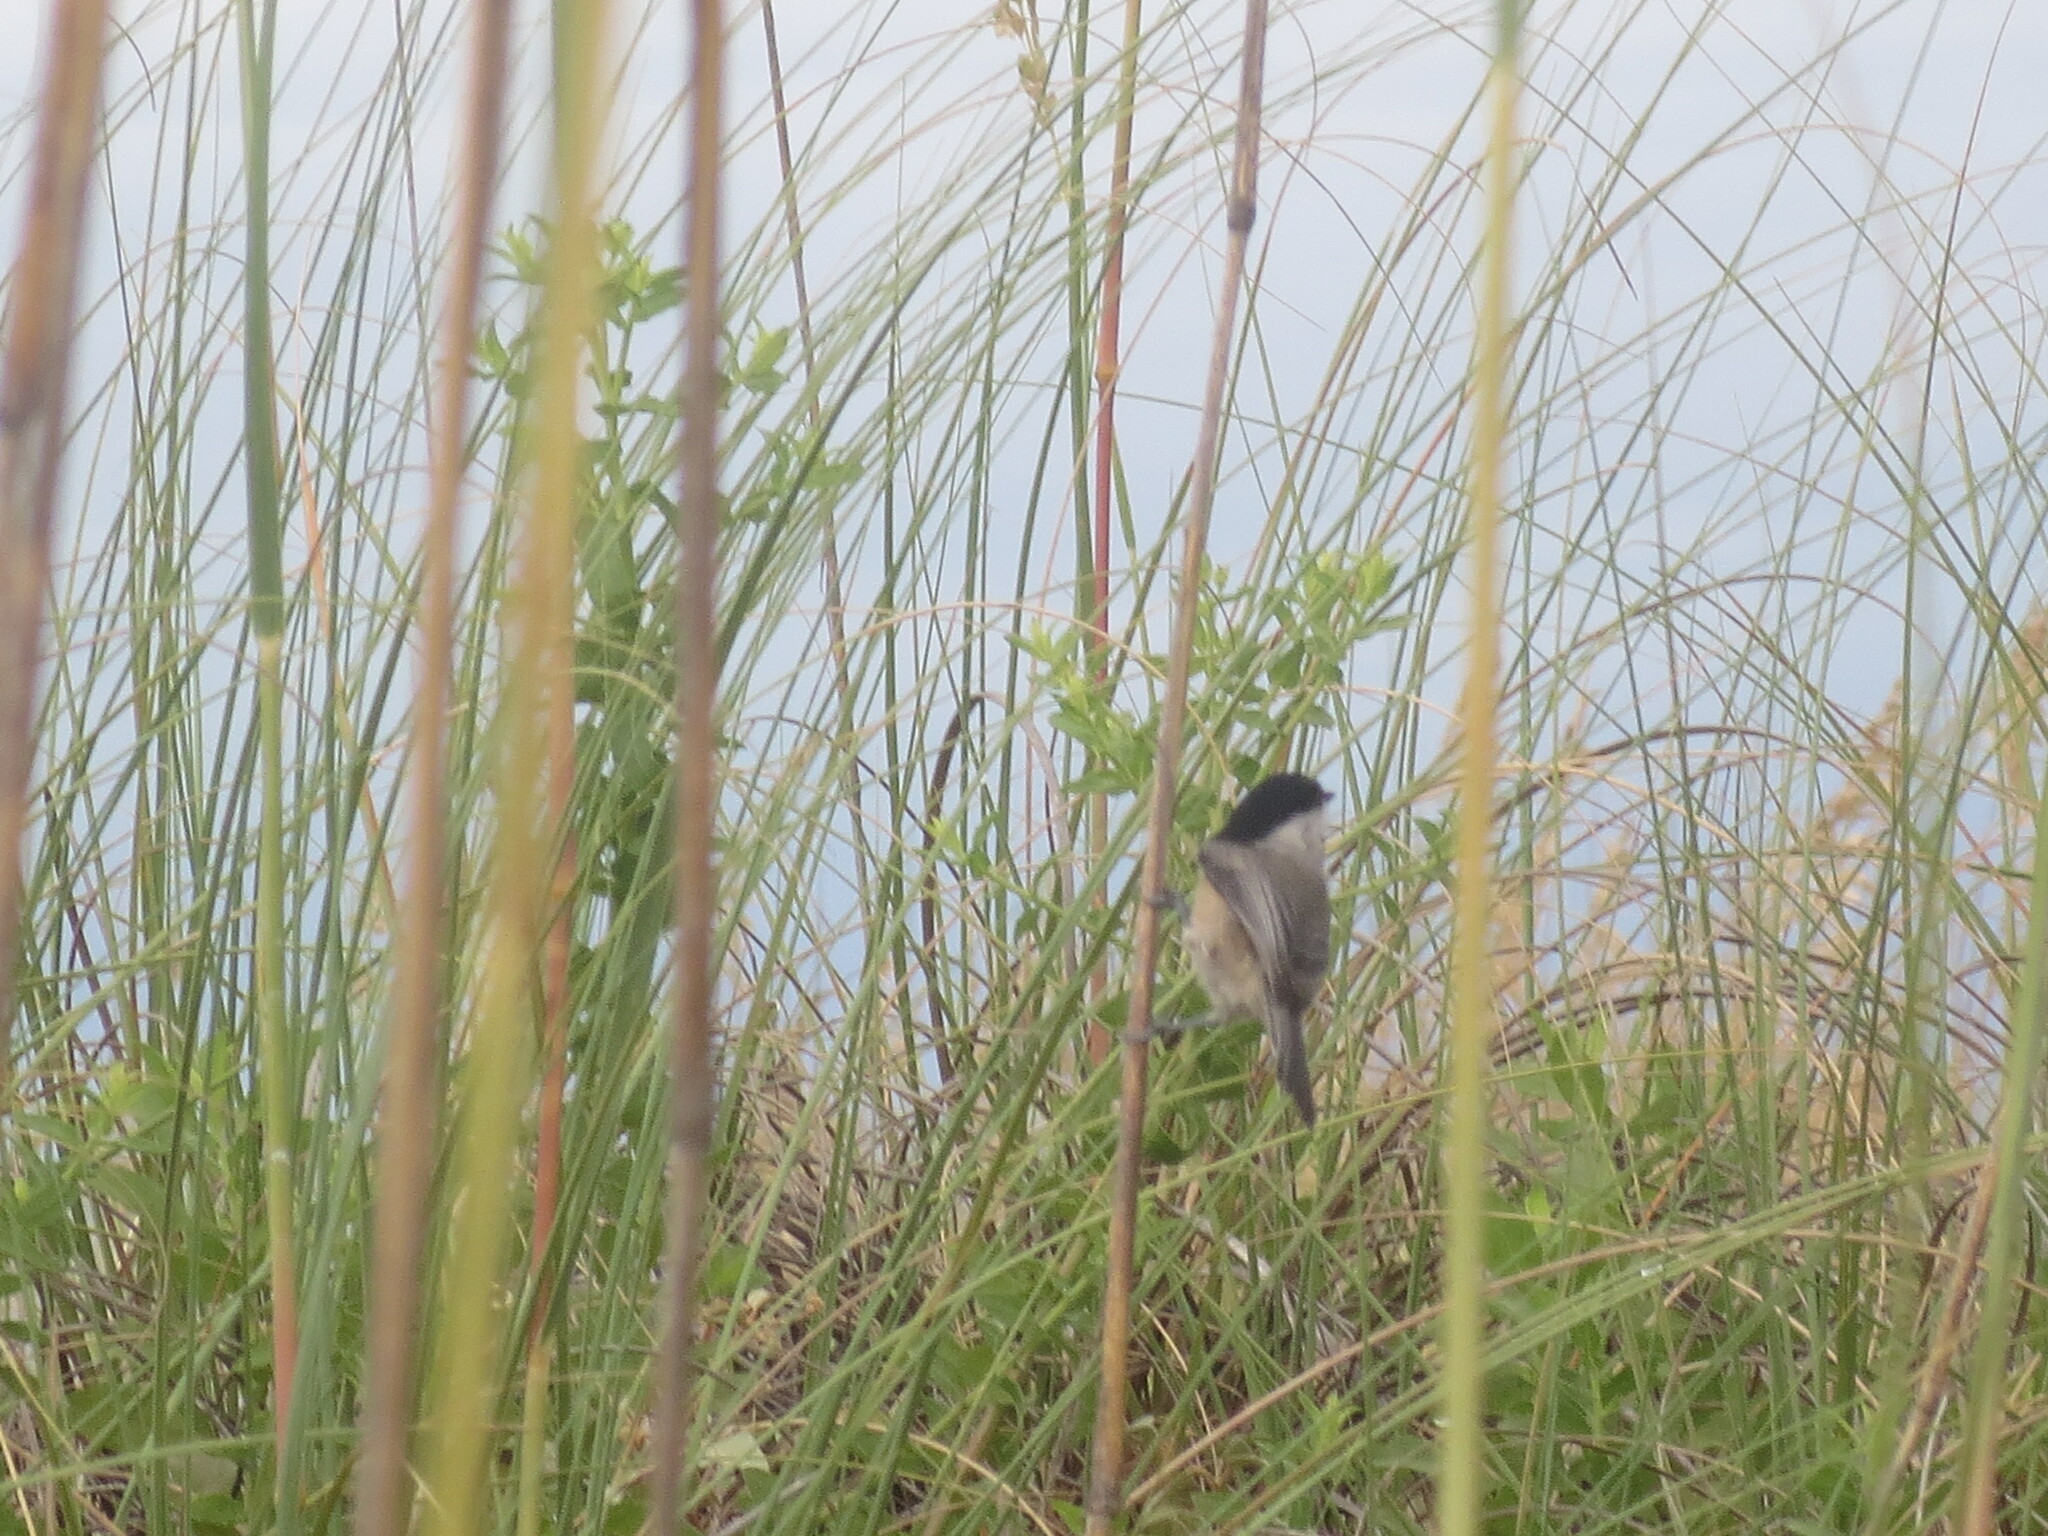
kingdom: Animalia
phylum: Chordata
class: Aves
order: Passeriformes
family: Paridae
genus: Poecile
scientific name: Poecile carolinensis
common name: Carolina chickadee
